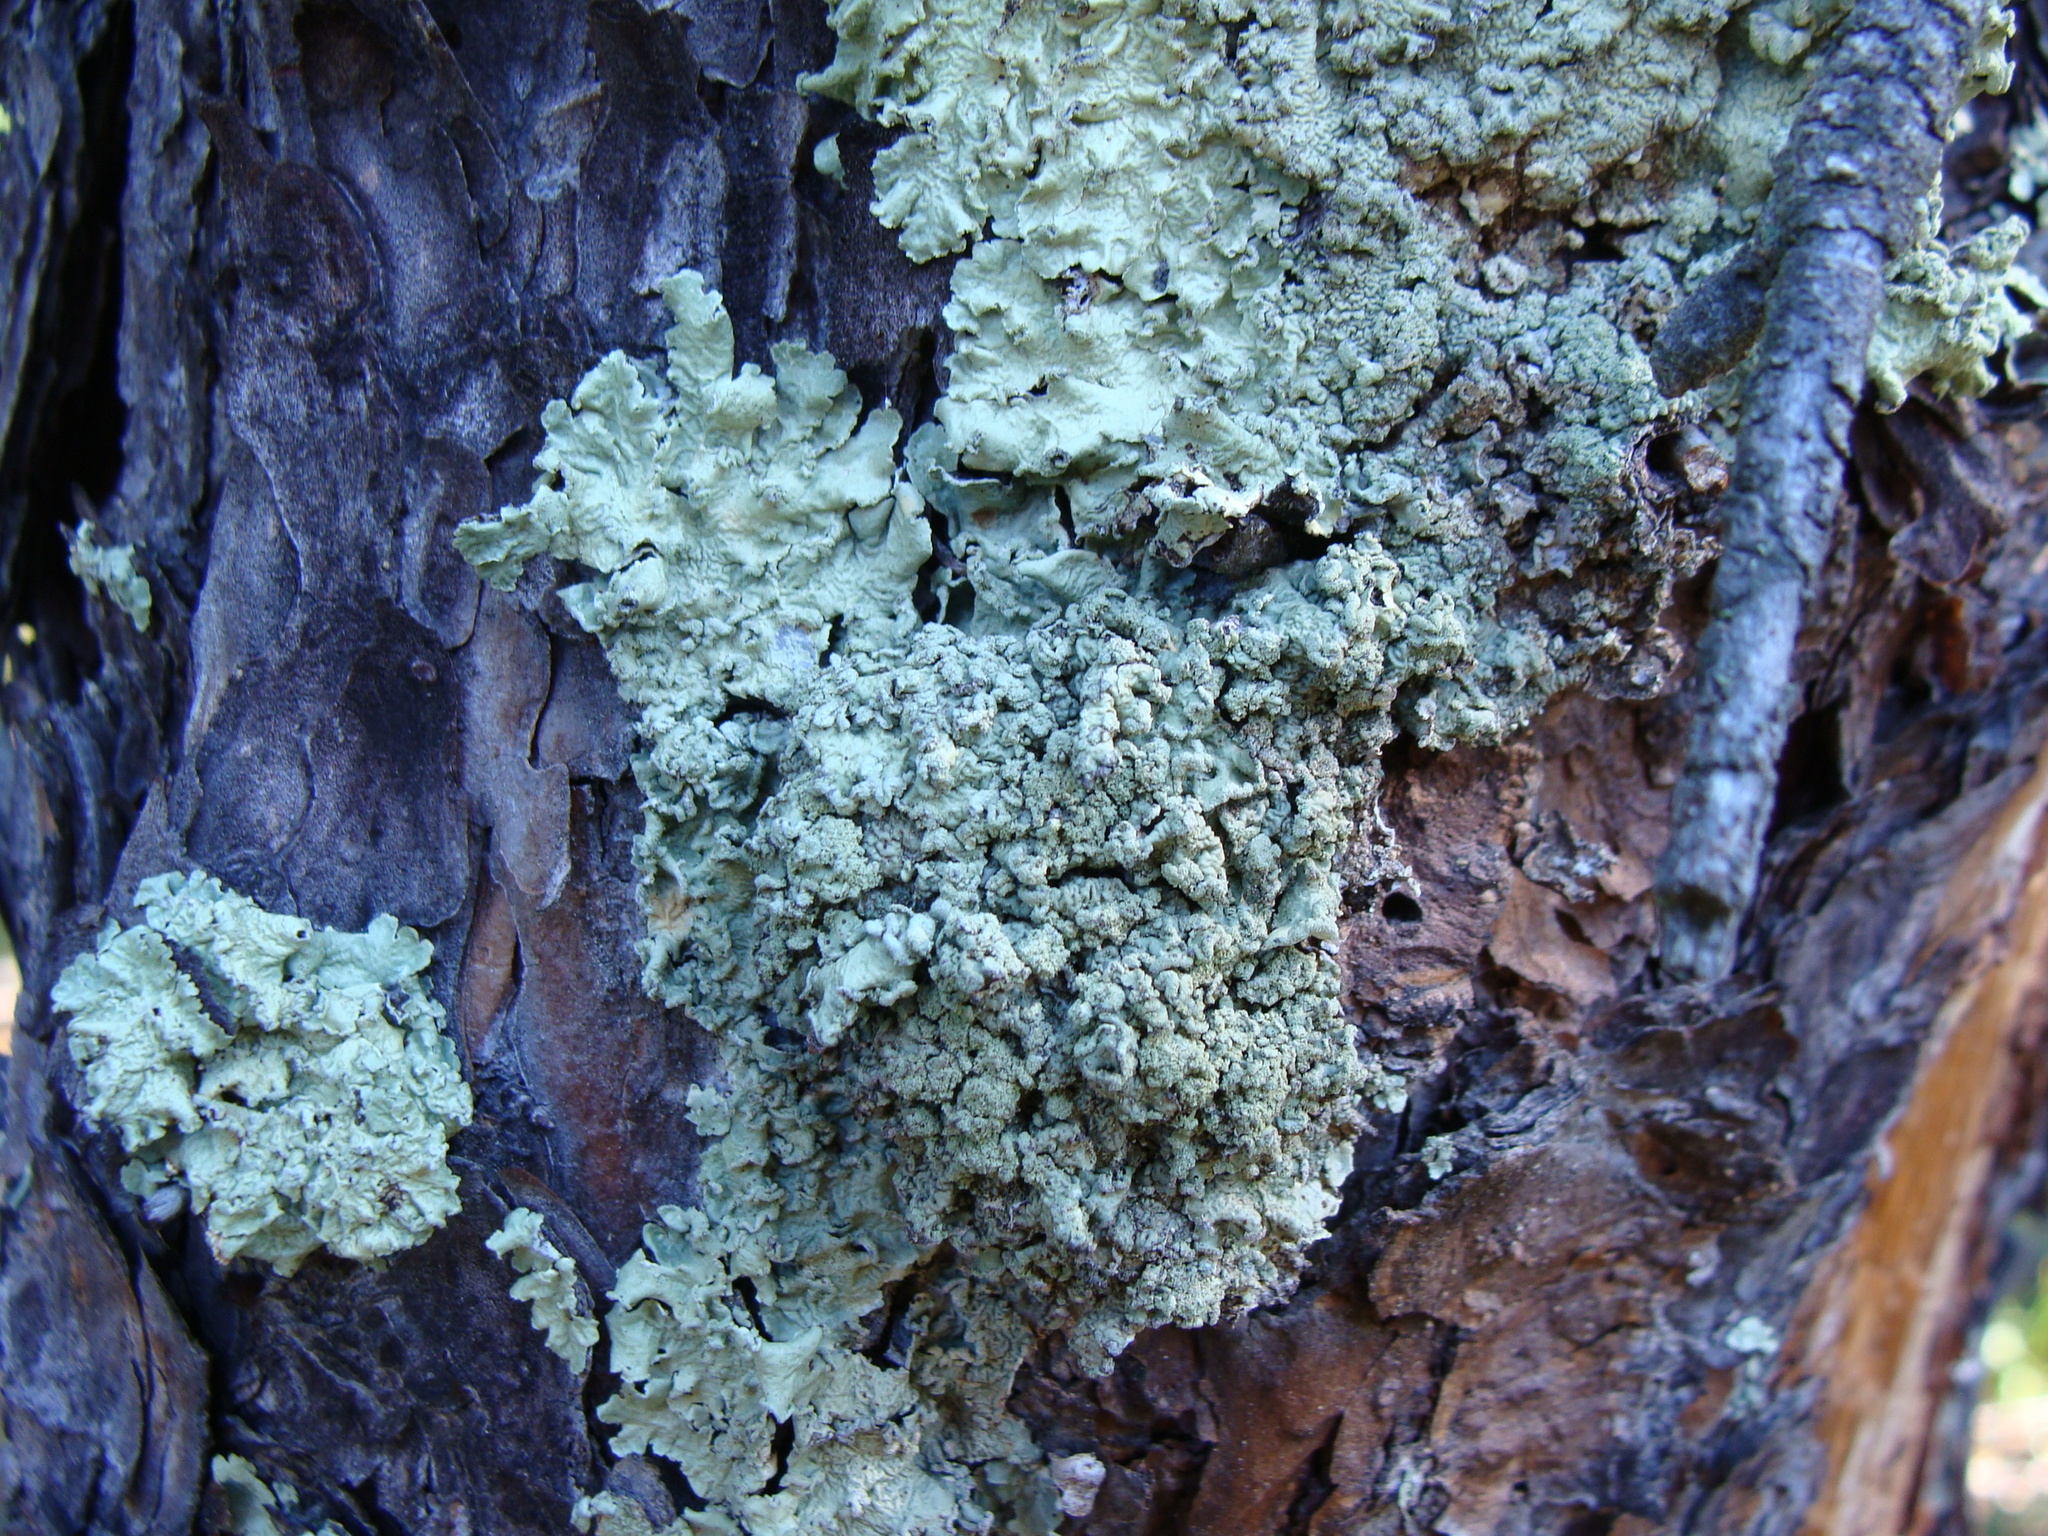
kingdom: Fungi
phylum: Ascomycota
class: Lecanoromycetes
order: Lecanorales
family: Parmeliaceae
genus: Flavoparmelia
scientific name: Flavoparmelia caperata
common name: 40-mile per hour lichen
